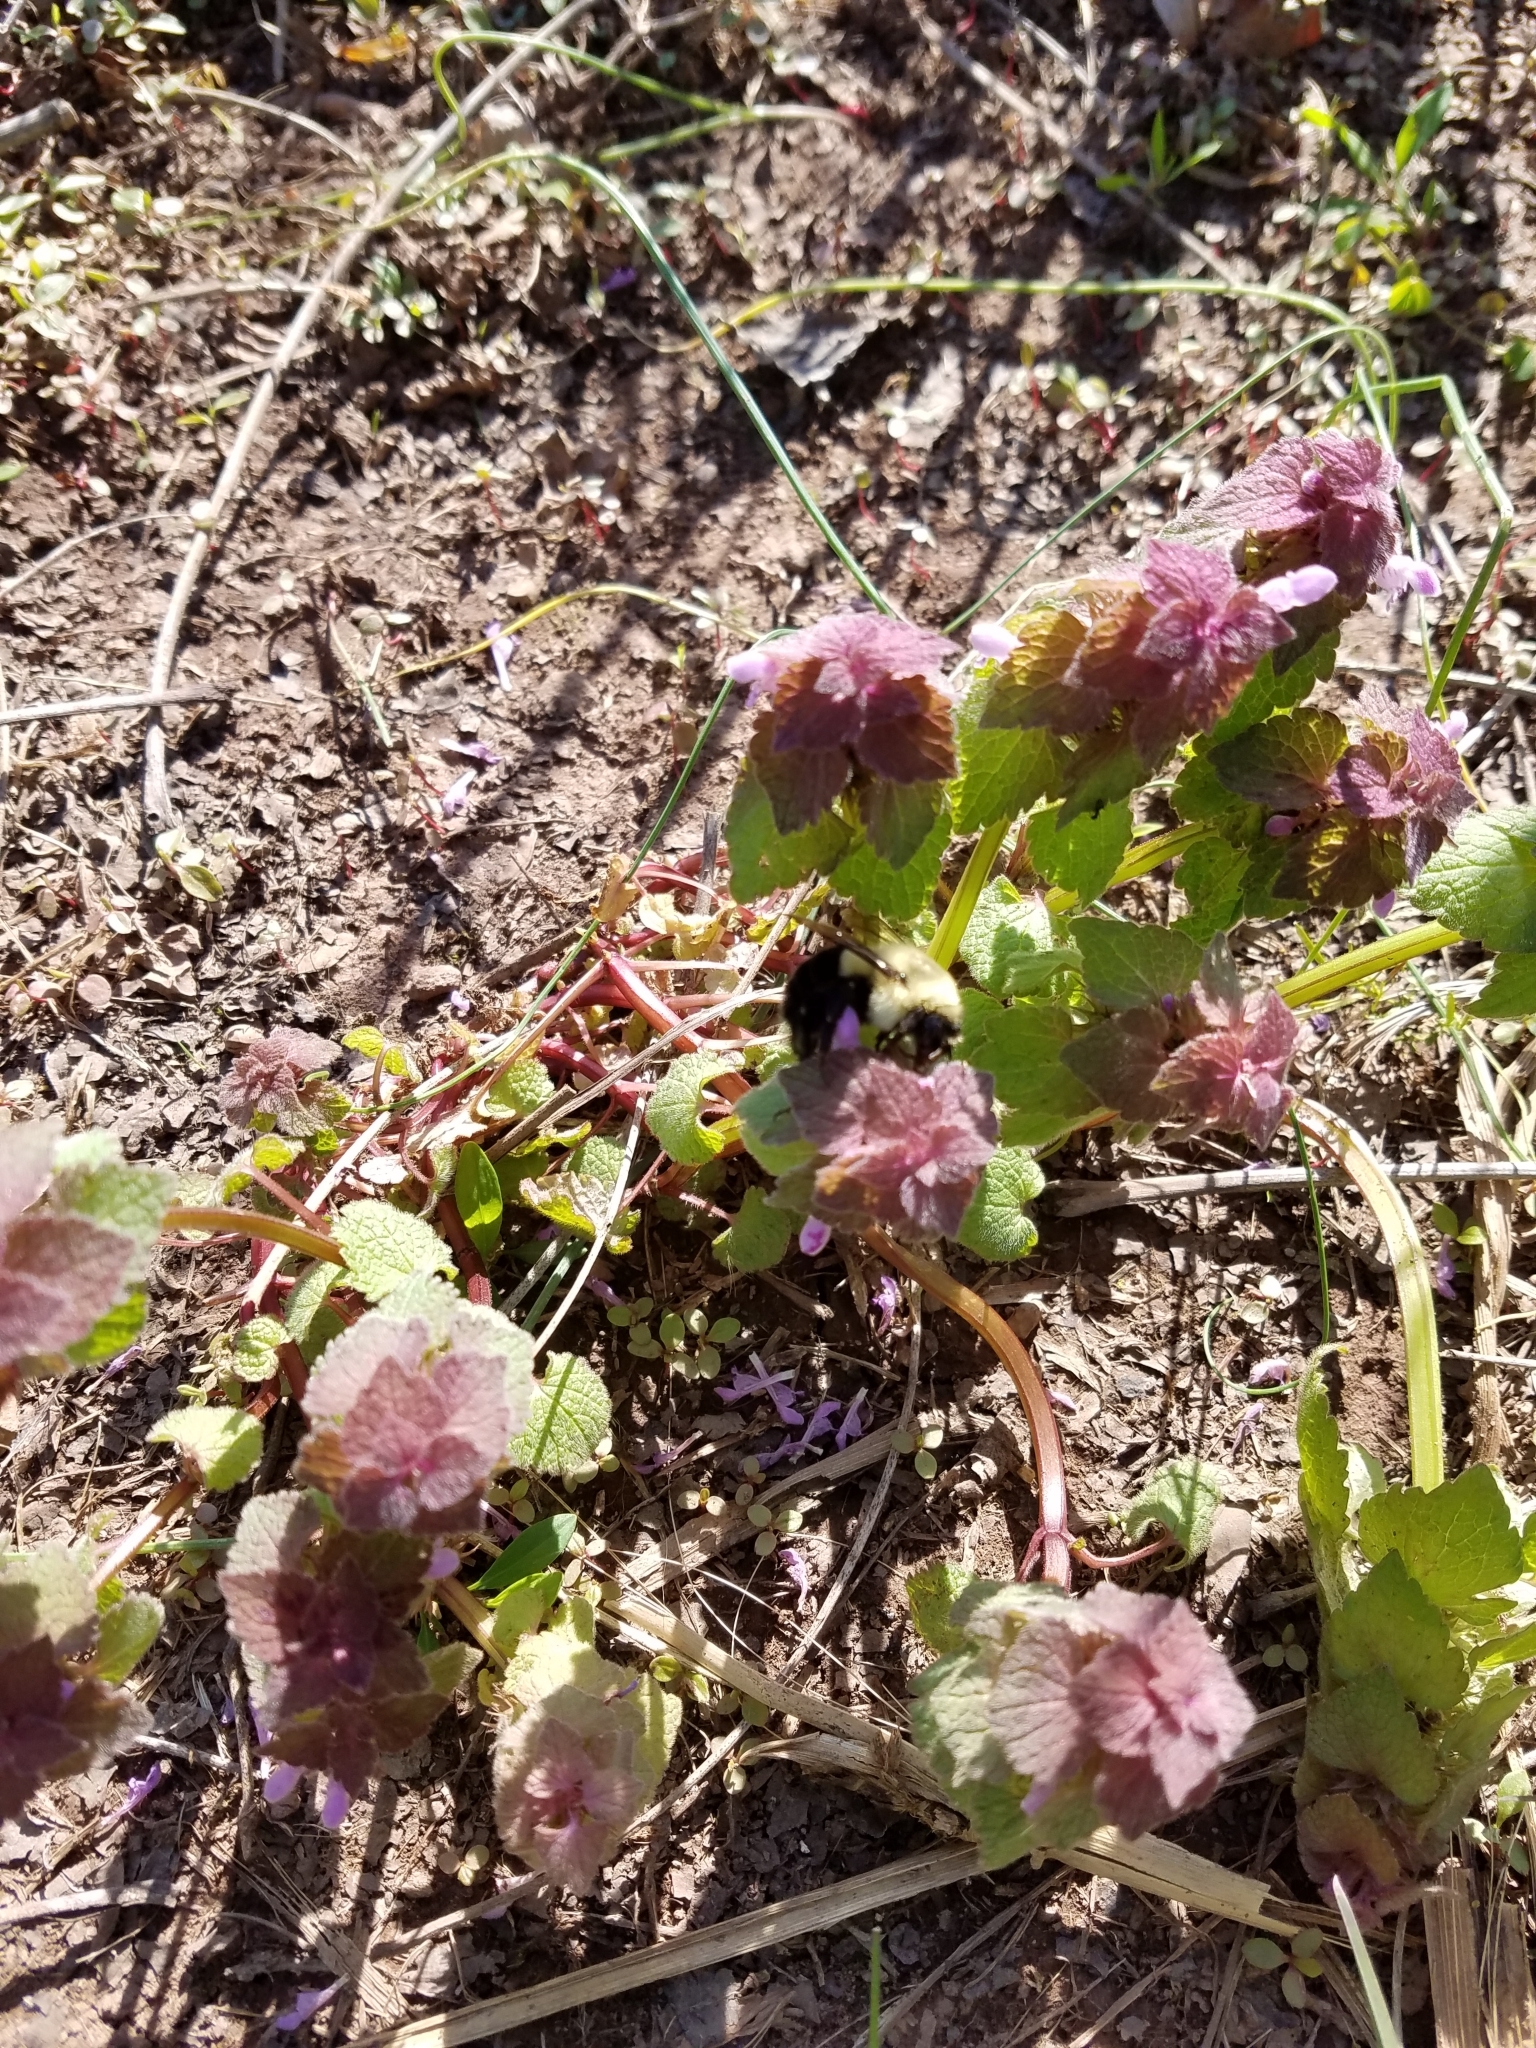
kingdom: Animalia
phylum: Arthropoda
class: Insecta
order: Hymenoptera
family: Apidae
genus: Bombus
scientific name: Bombus impatiens
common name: Common eastern bumble bee
